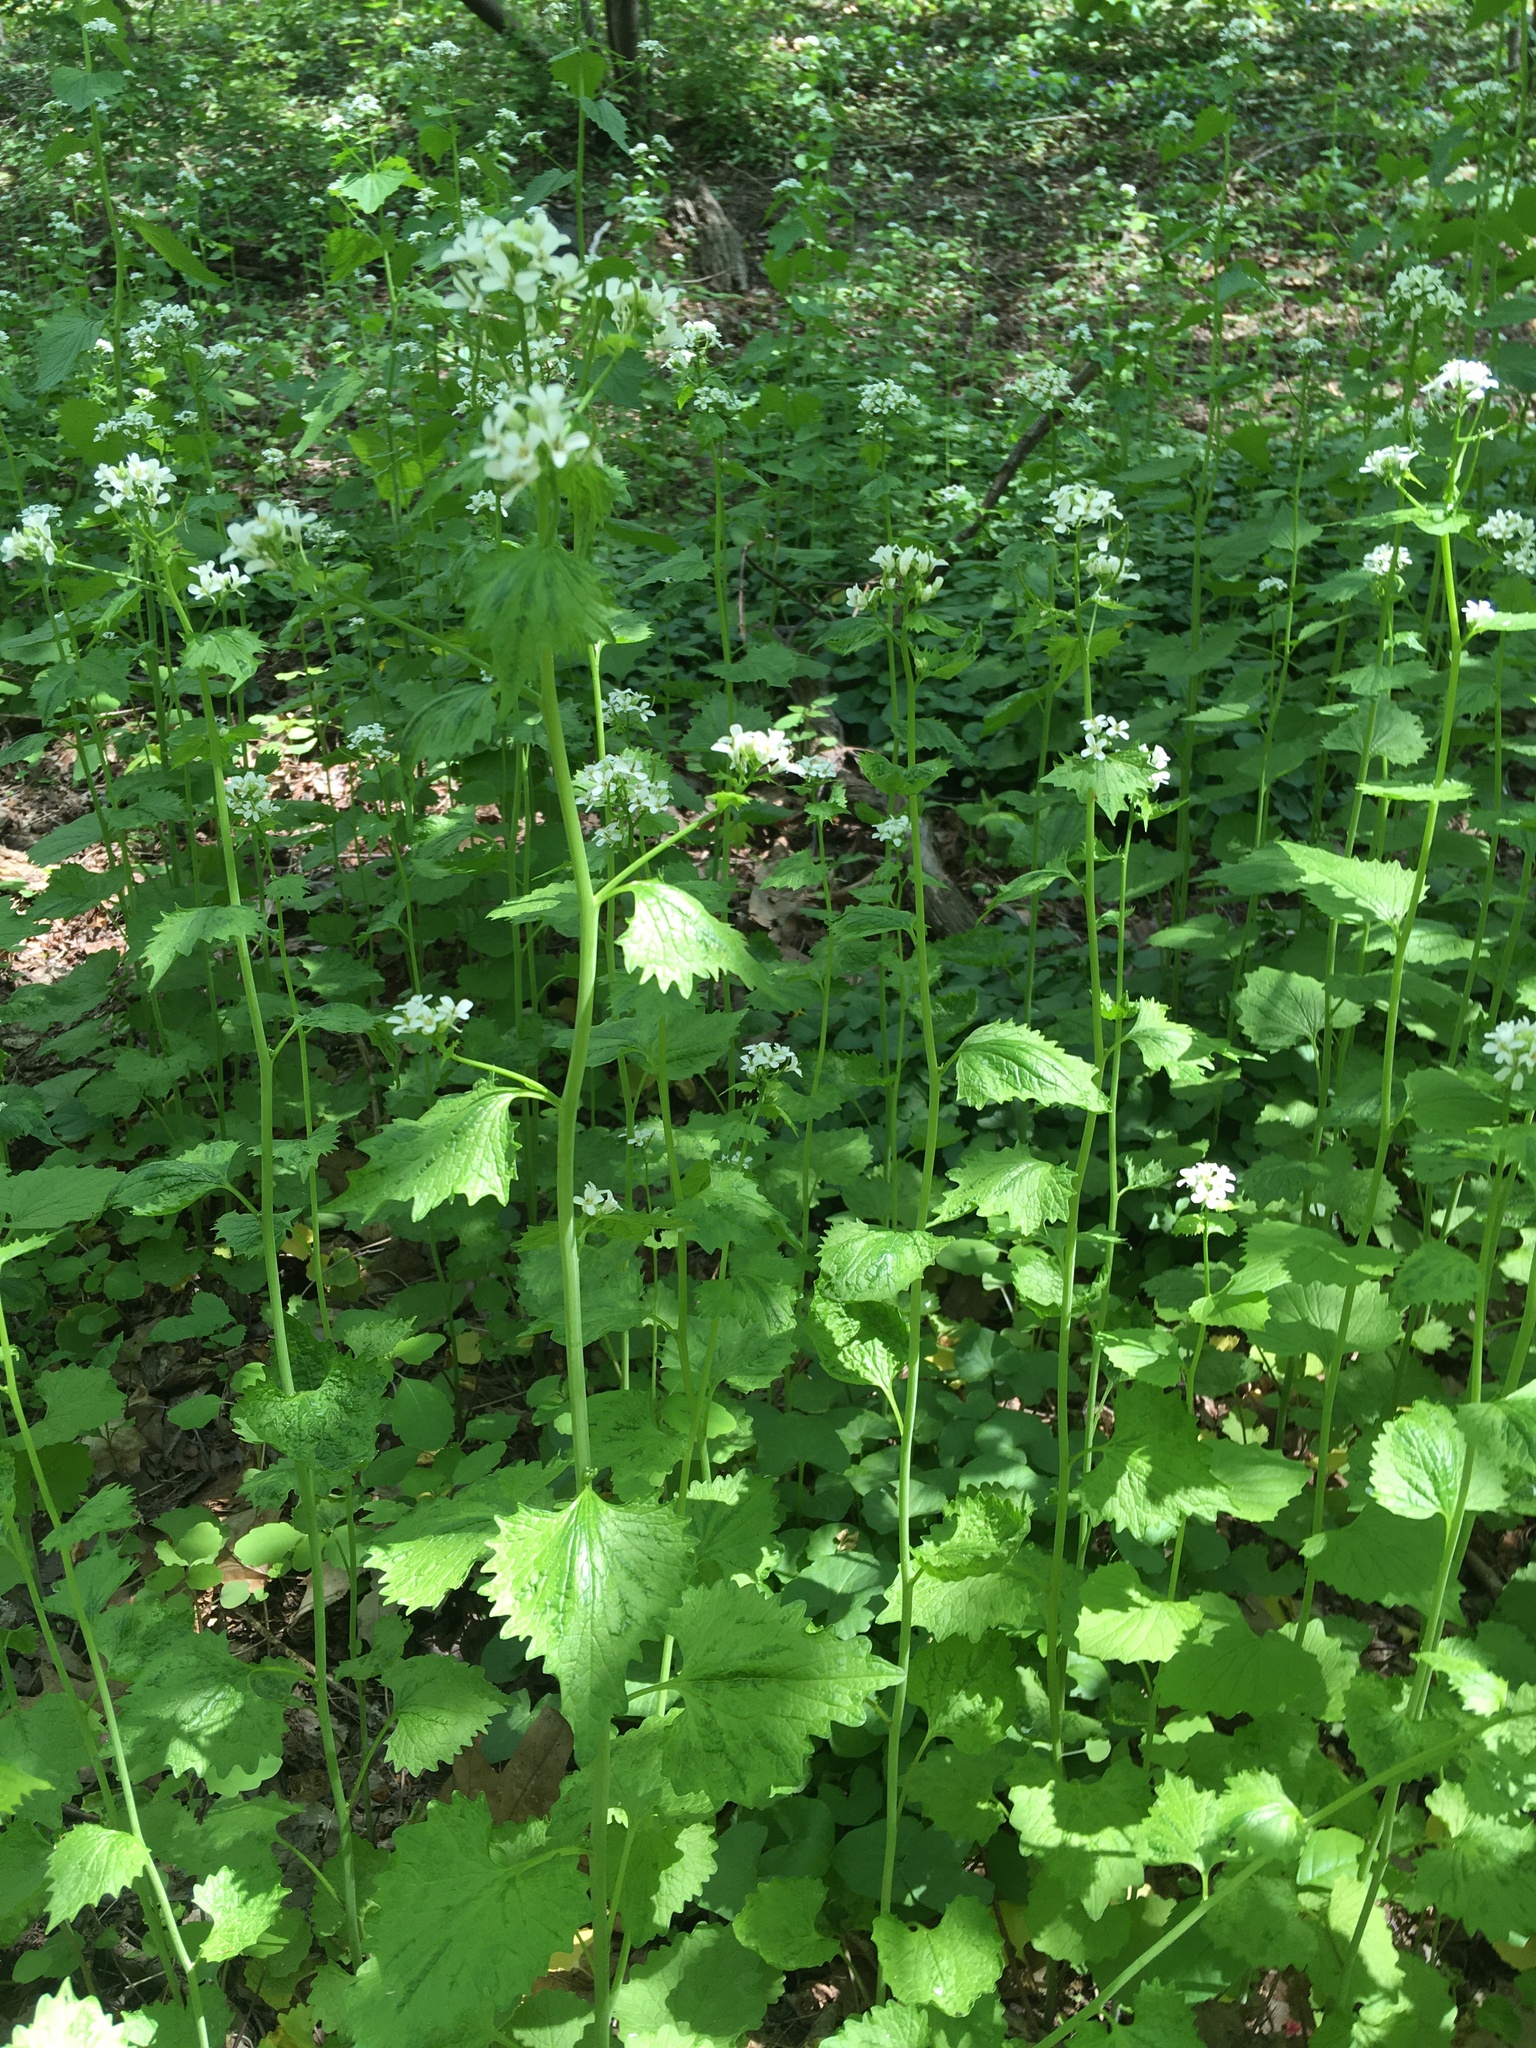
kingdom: Plantae
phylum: Tracheophyta
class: Magnoliopsida
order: Brassicales
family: Brassicaceae
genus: Alliaria
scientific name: Alliaria petiolata
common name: Garlic mustard
